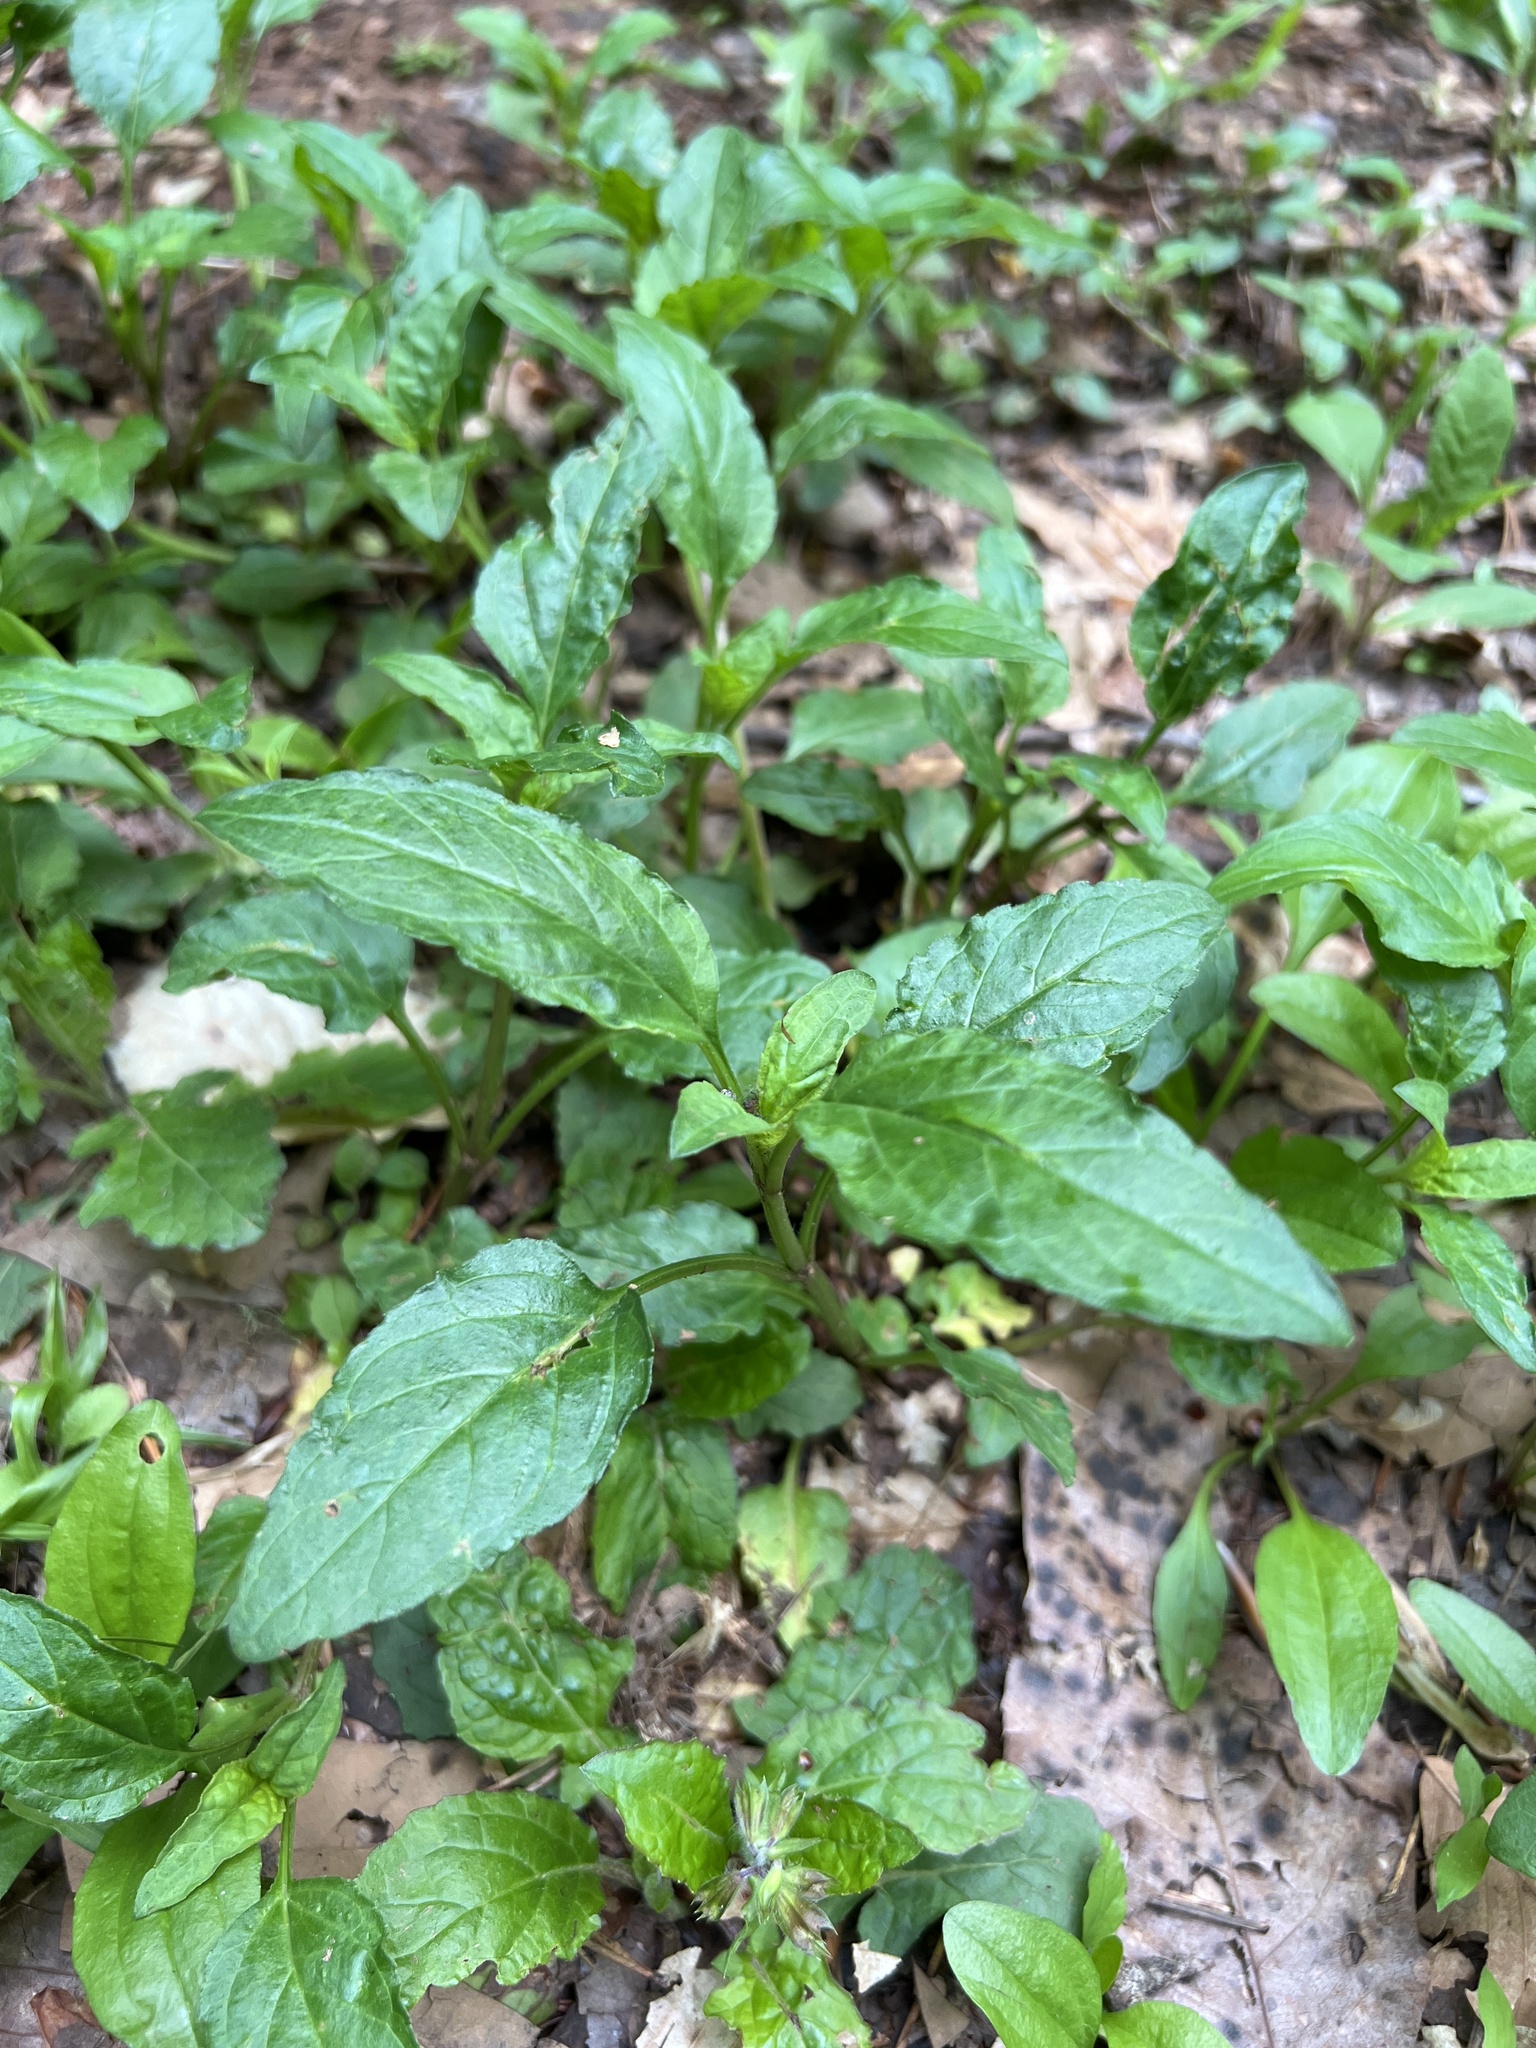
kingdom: Plantae
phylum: Tracheophyta
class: Magnoliopsida
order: Lamiales
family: Lamiaceae
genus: Prunella
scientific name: Prunella vulgaris
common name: Heal-all
